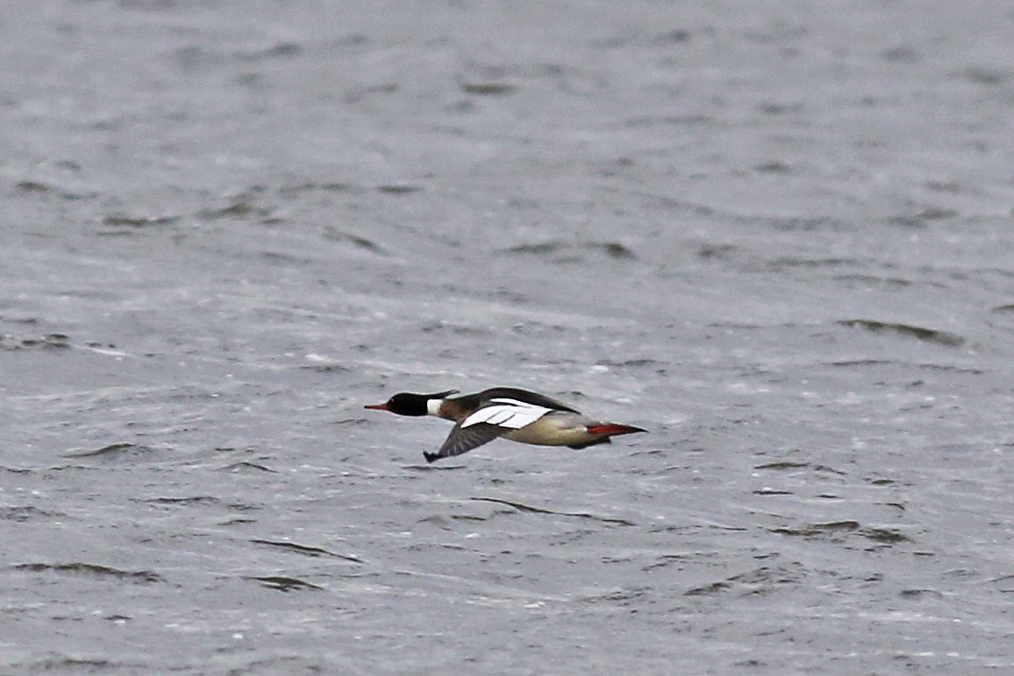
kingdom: Animalia
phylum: Chordata
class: Aves
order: Anseriformes
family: Anatidae
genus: Mergus
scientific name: Mergus serrator
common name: Red-breasted merganser
